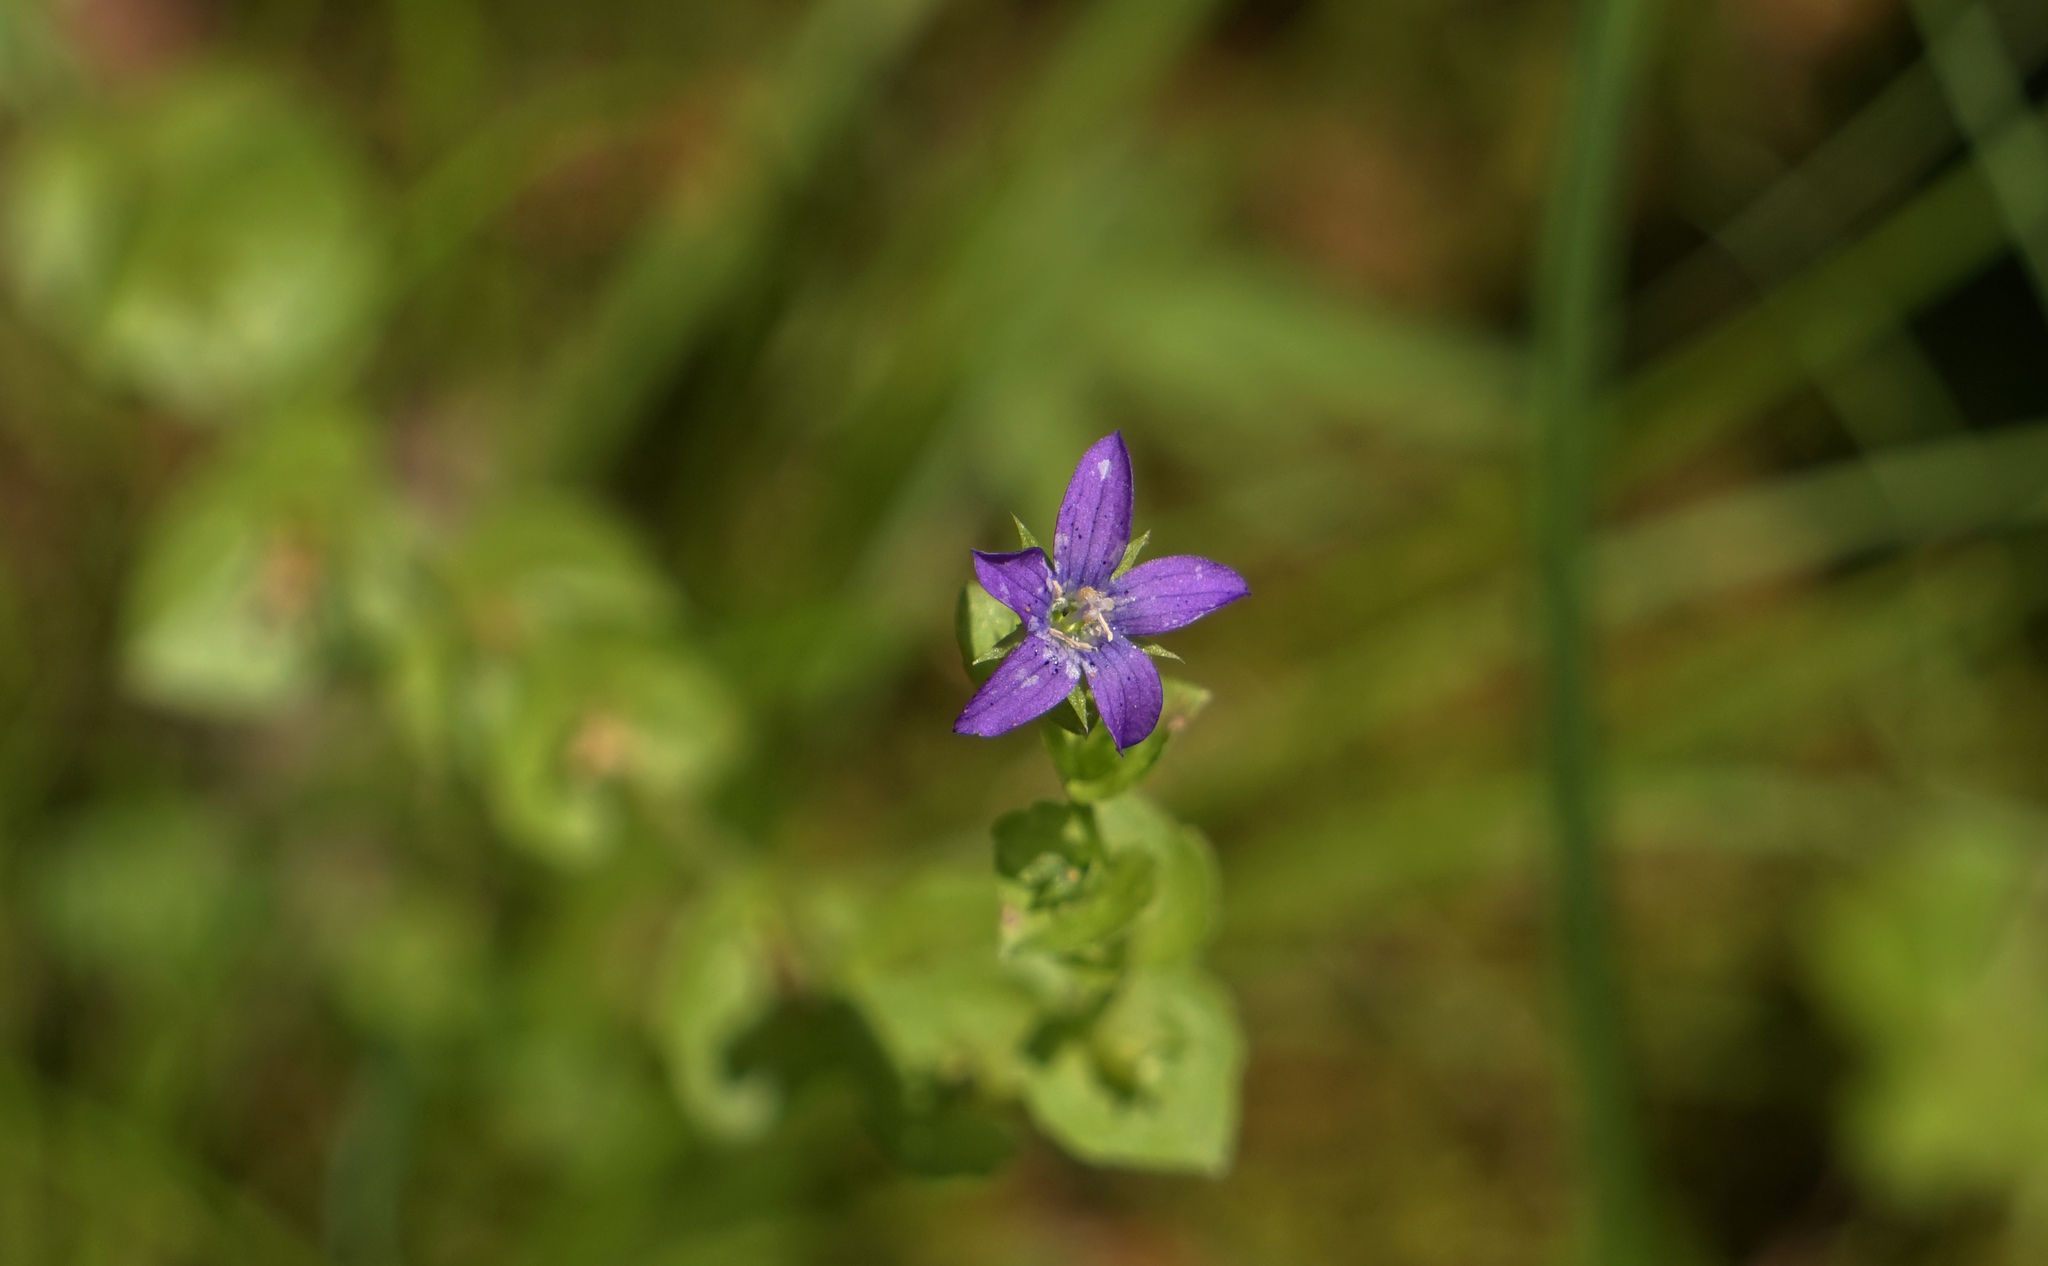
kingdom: Plantae
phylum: Tracheophyta
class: Magnoliopsida
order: Asterales
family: Campanulaceae
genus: Triodanis
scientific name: Triodanis perfoliata
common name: Clasping venus' looking-glass
